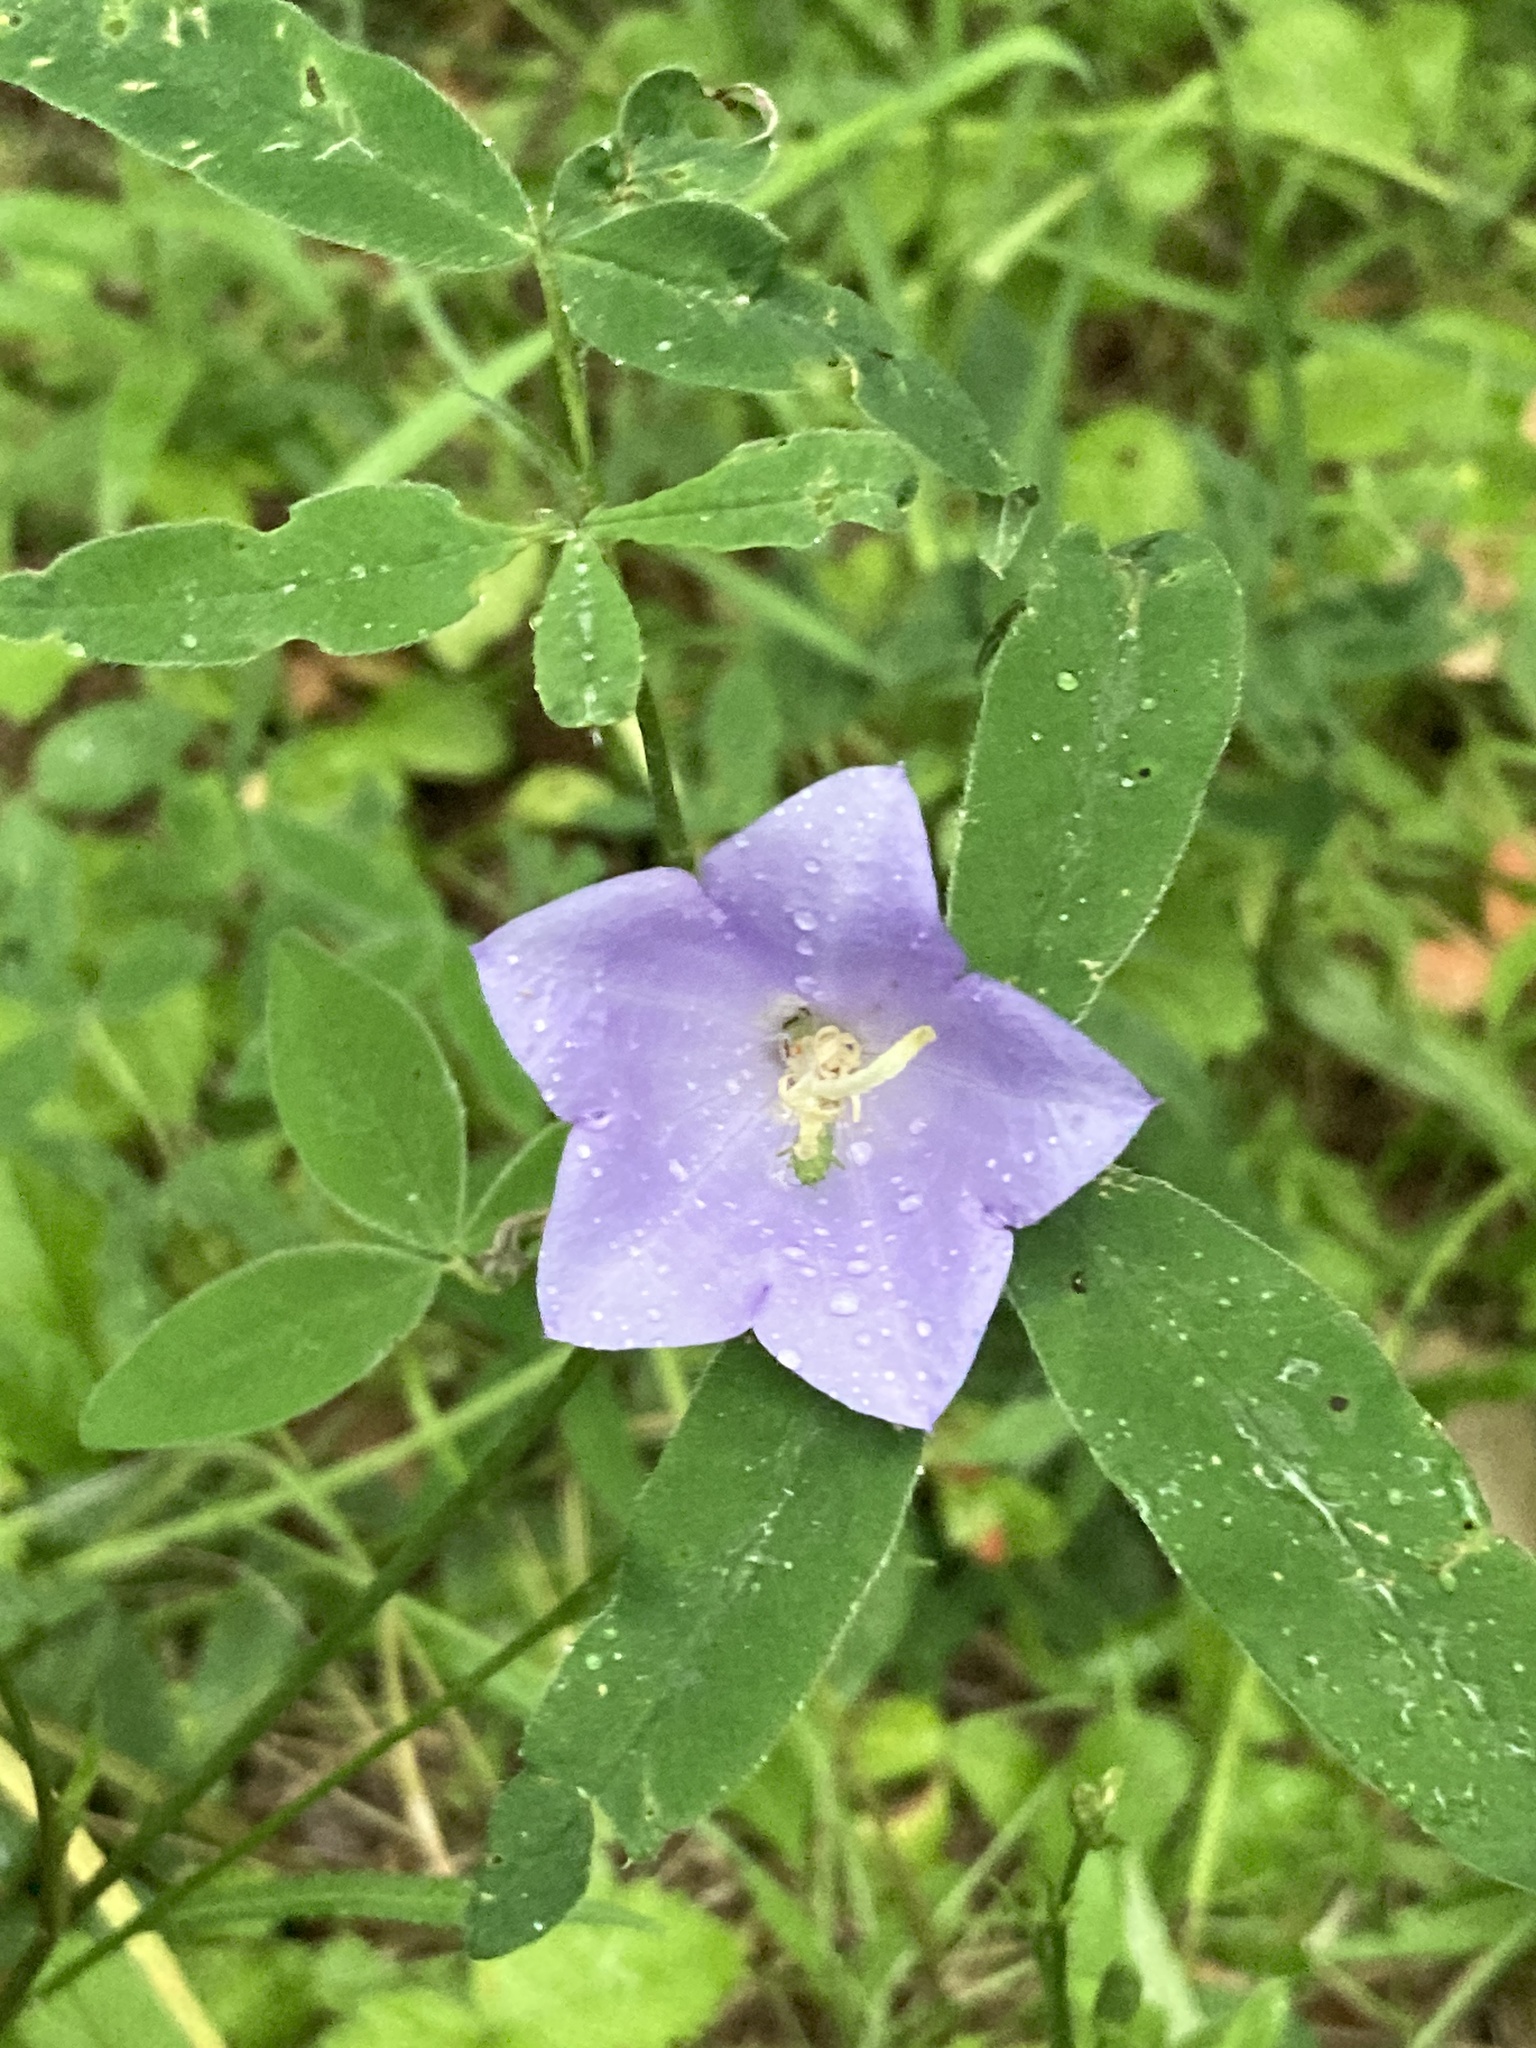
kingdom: Plantae
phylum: Tracheophyta
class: Magnoliopsida
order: Asterales
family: Campanulaceae
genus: Campanula
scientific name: Campanula persicifolia
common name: Peach-leaved bellflower
